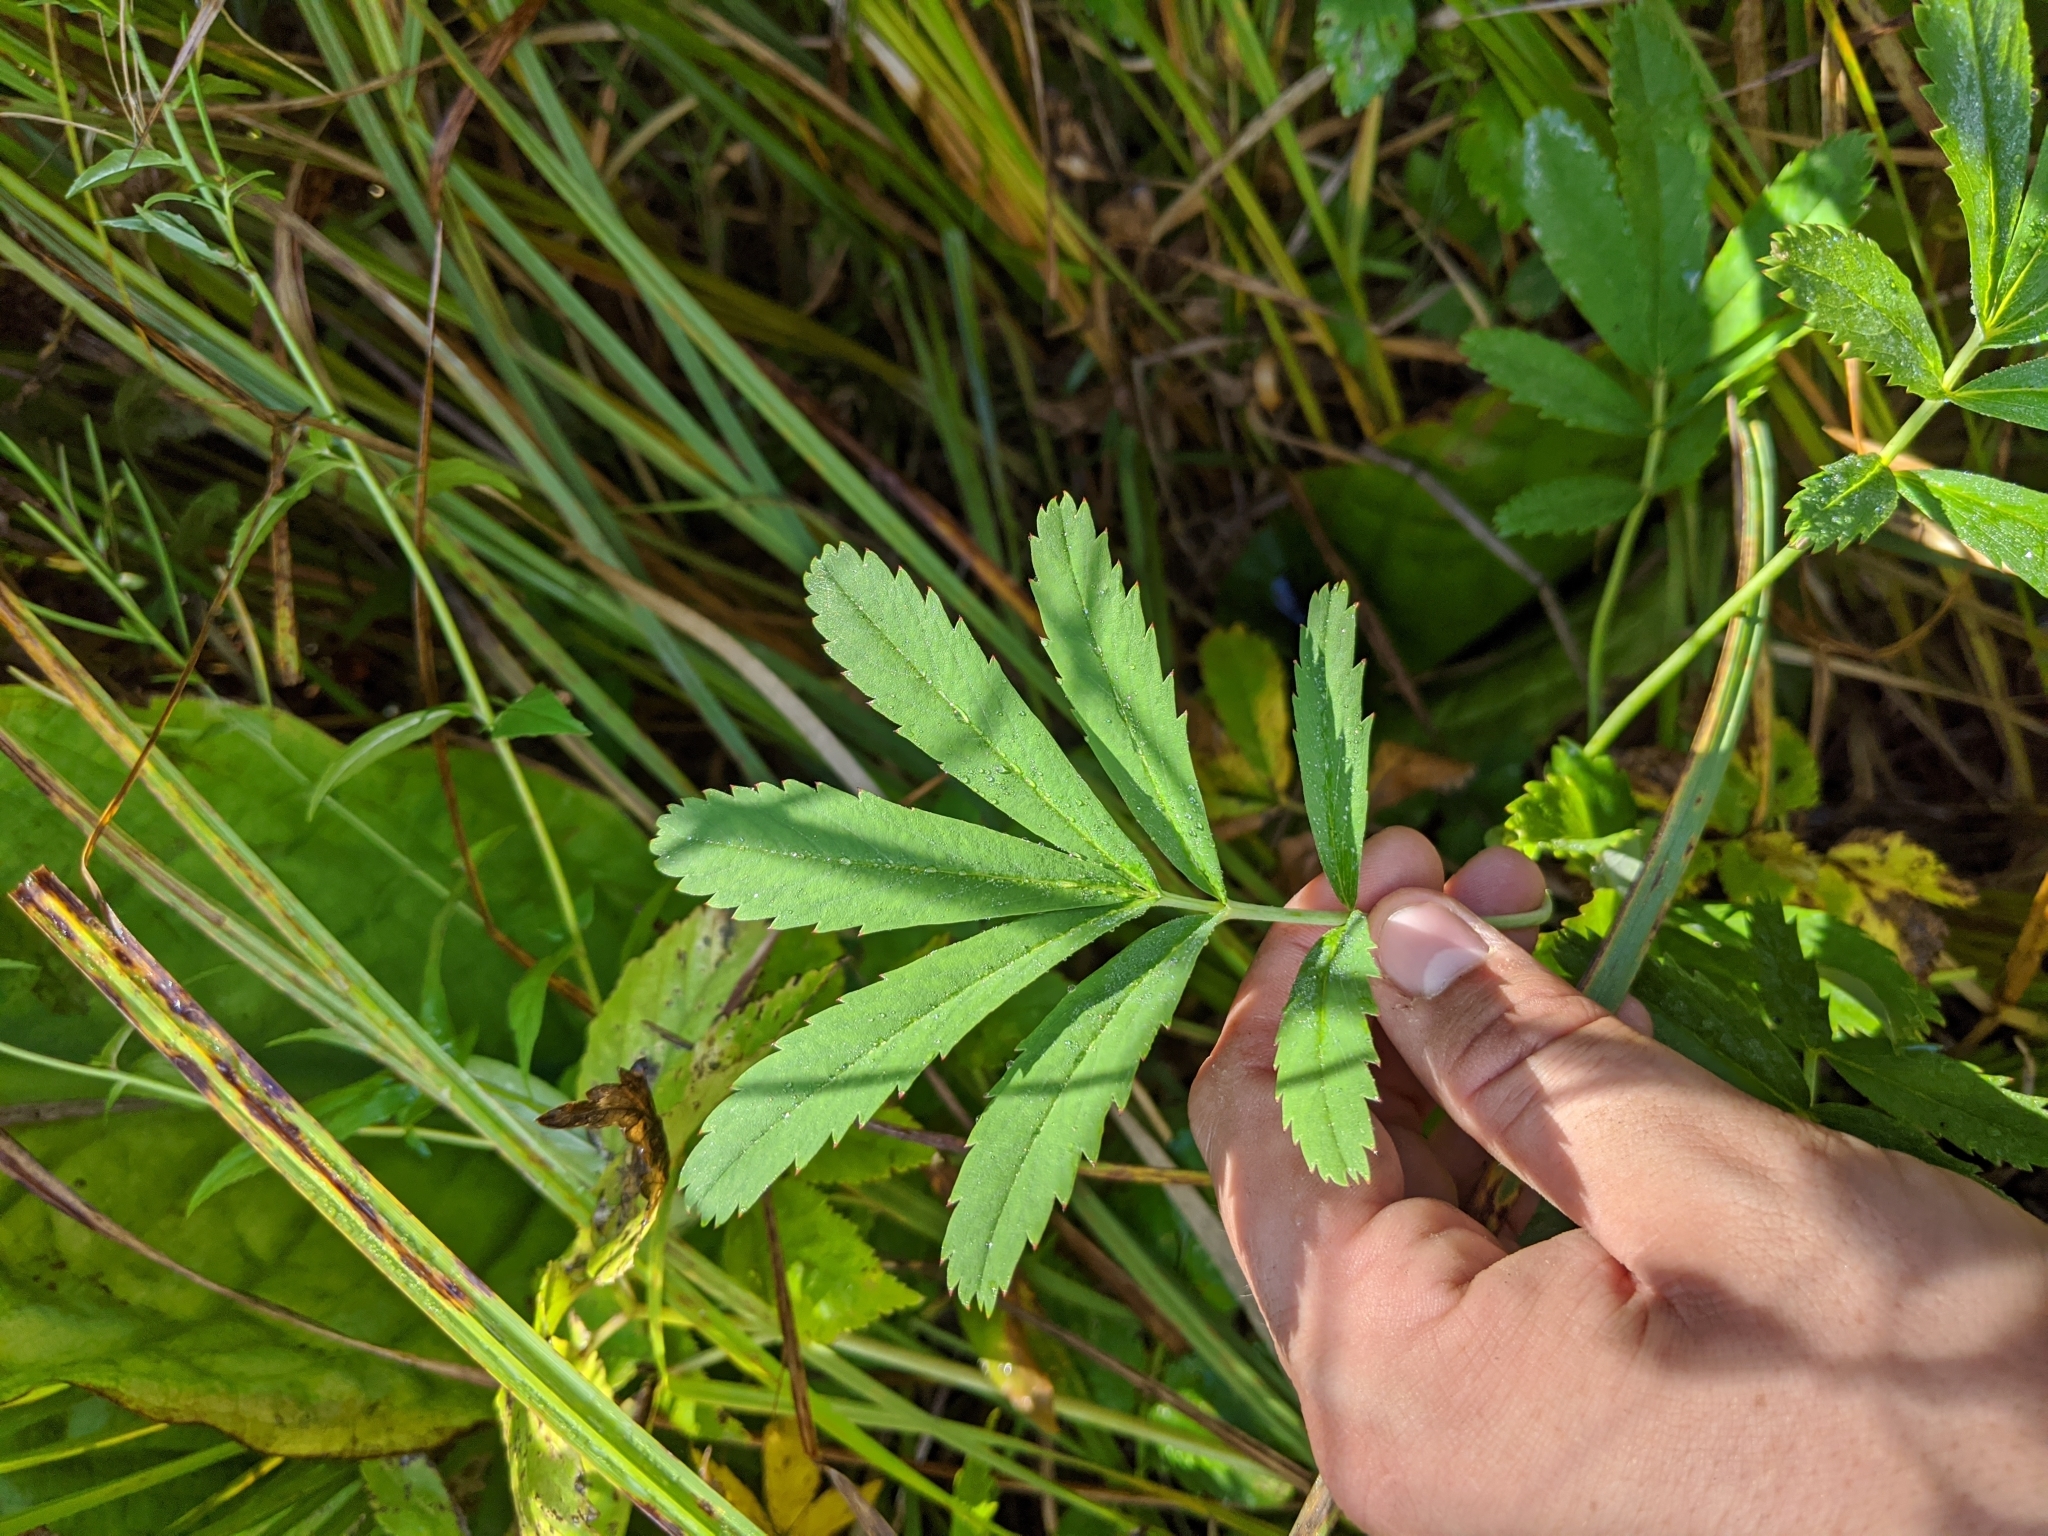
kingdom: Plantae
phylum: Tracheophyta
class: Magnoliopsida
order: Rosales
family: Rosaceae
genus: Comarum
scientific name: Comarum palustre
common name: Marsh cinquefoil
